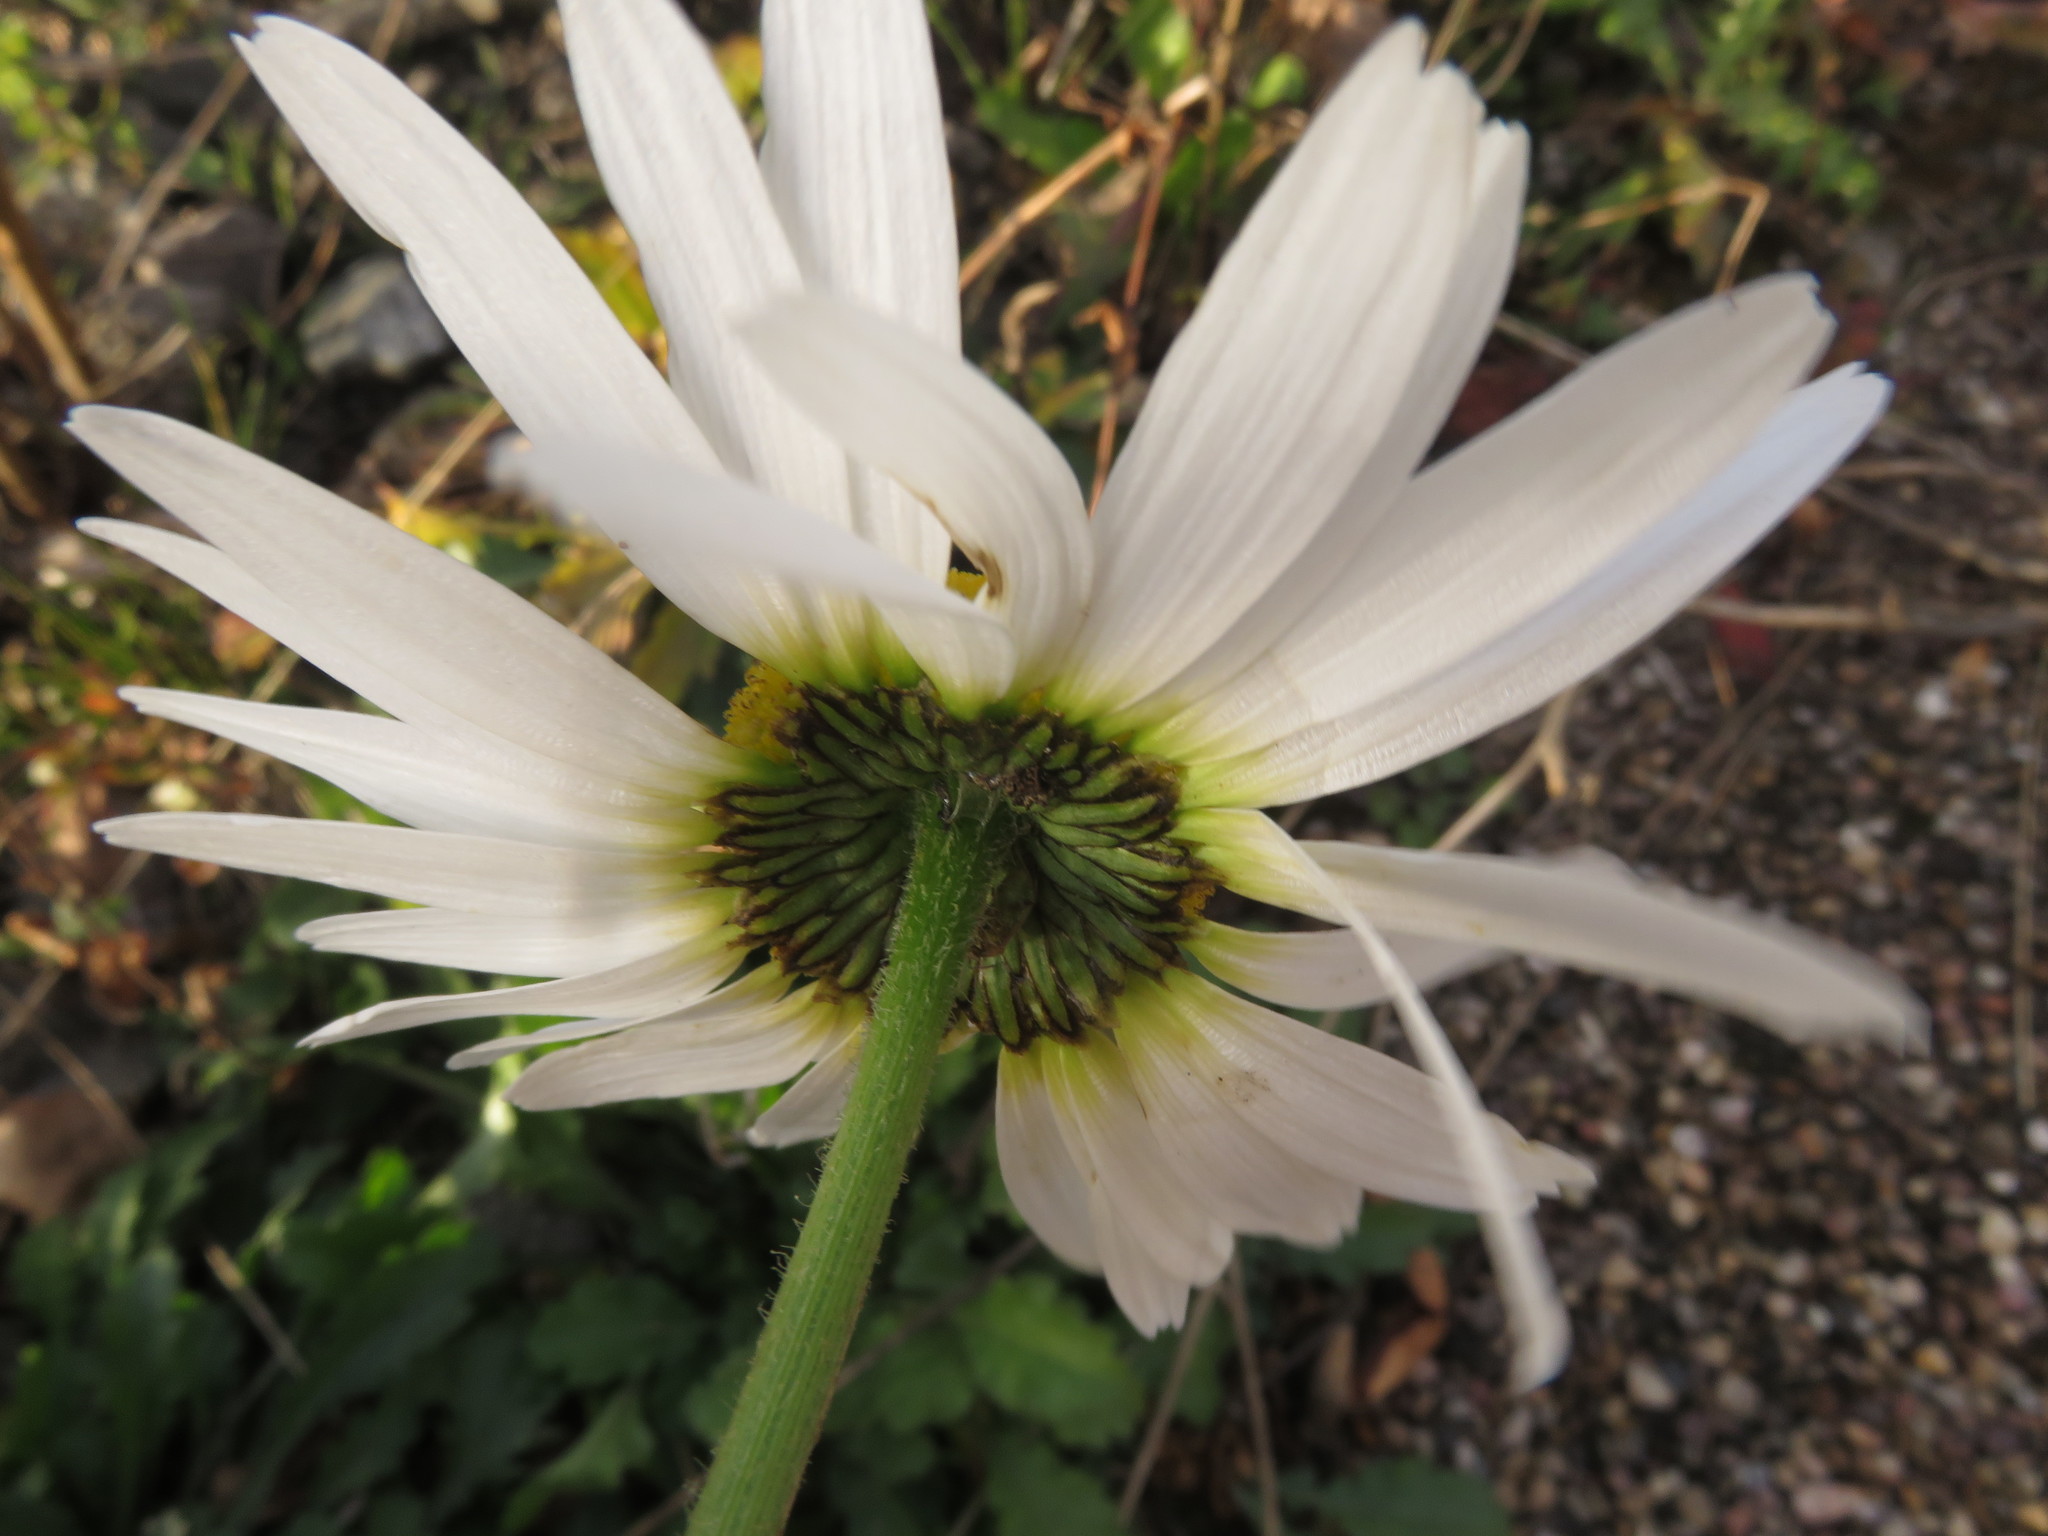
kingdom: Plantae
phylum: Tracheophyta
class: Magnoliopsida
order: Asterales
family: Asteraceae
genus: Leucanthemum
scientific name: Leucanthemum vulgare
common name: Oxeye daisy
